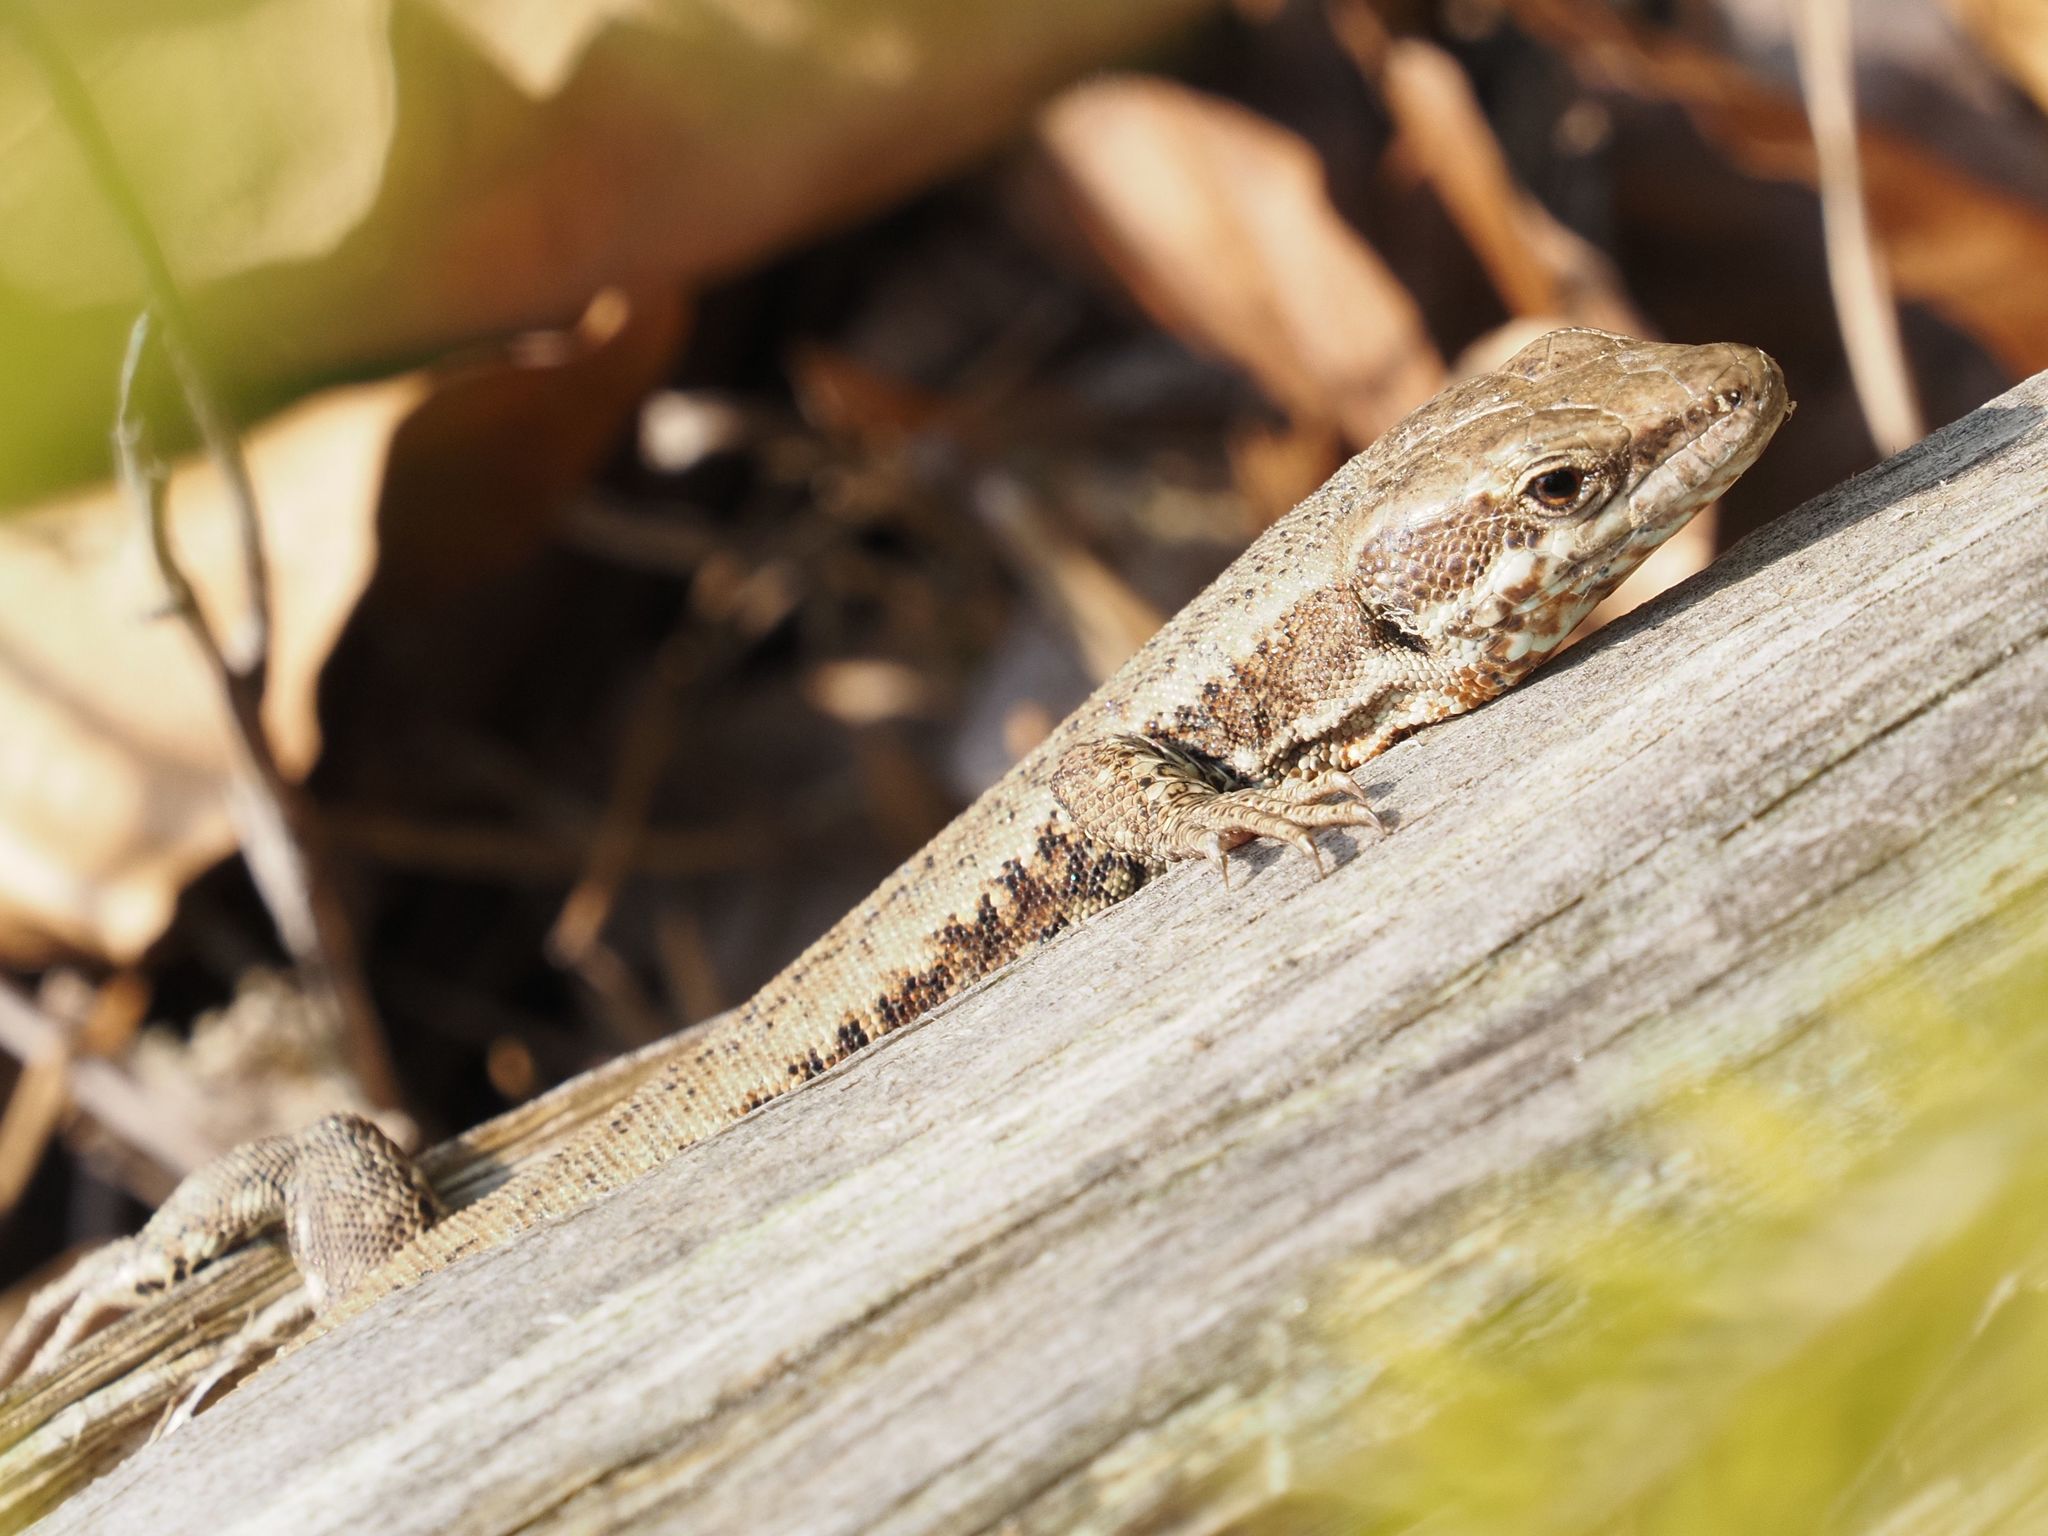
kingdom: Animalia
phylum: Chordata
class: Squamata
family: Lacertidae
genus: Podarcis
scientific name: Podarcis muralis
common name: Common wall lizard
